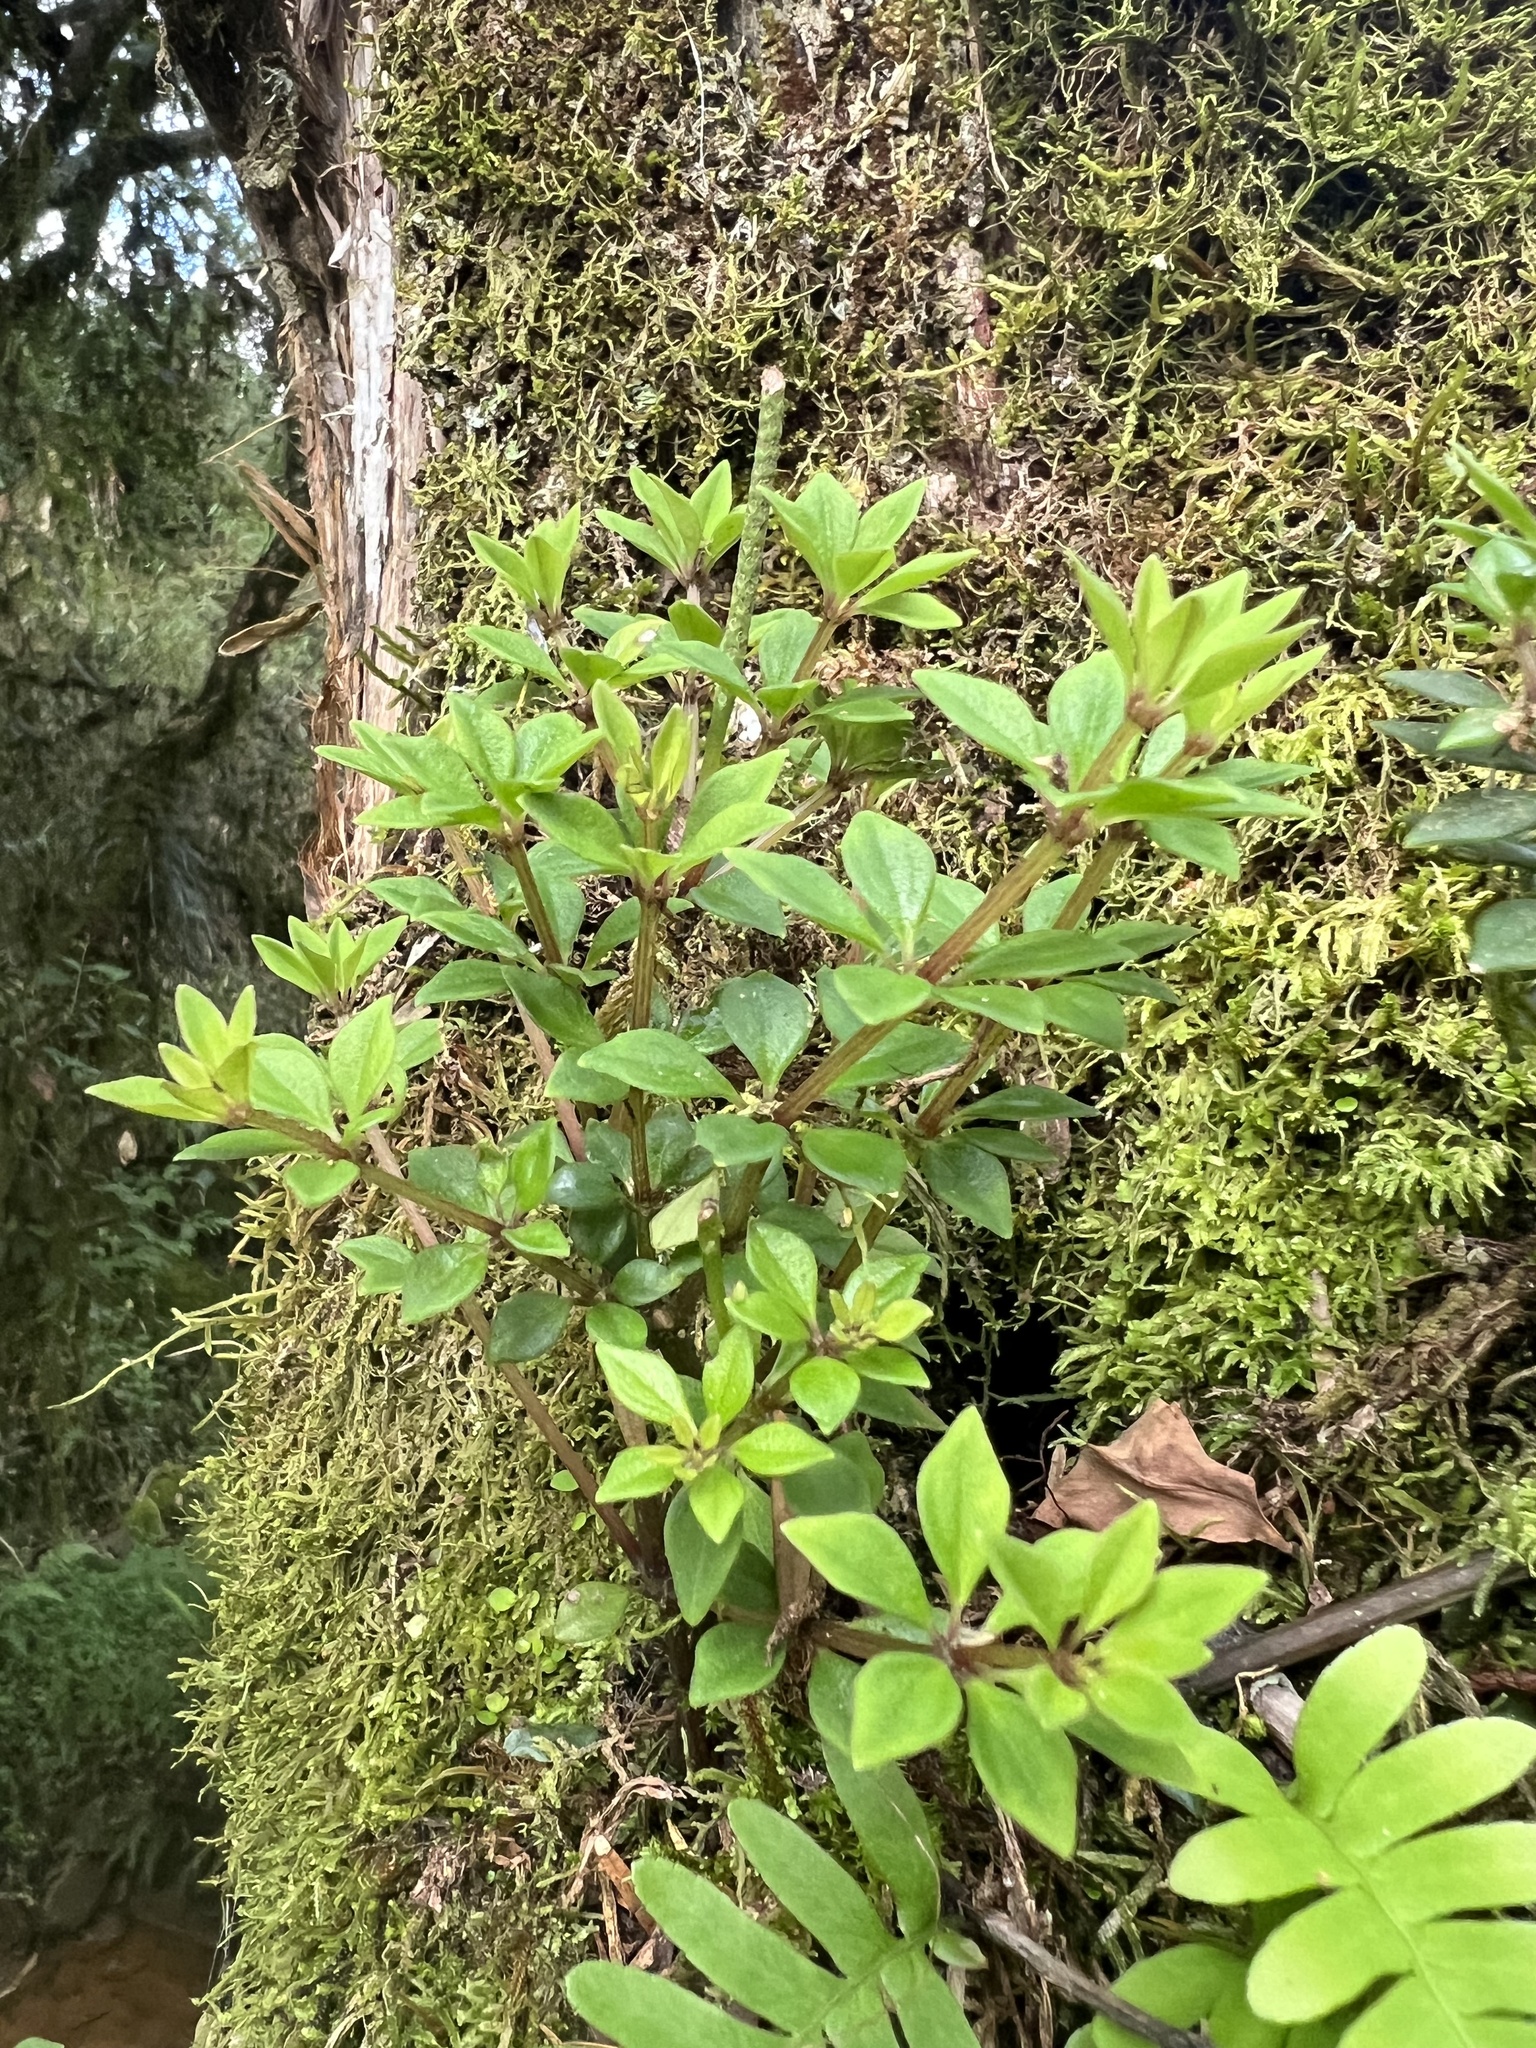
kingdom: Plantae
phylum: Tracheophyta
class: Magnoliopsida
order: Piperales
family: Piperaceae
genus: Peperomia
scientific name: Peperomia tetraphylla
